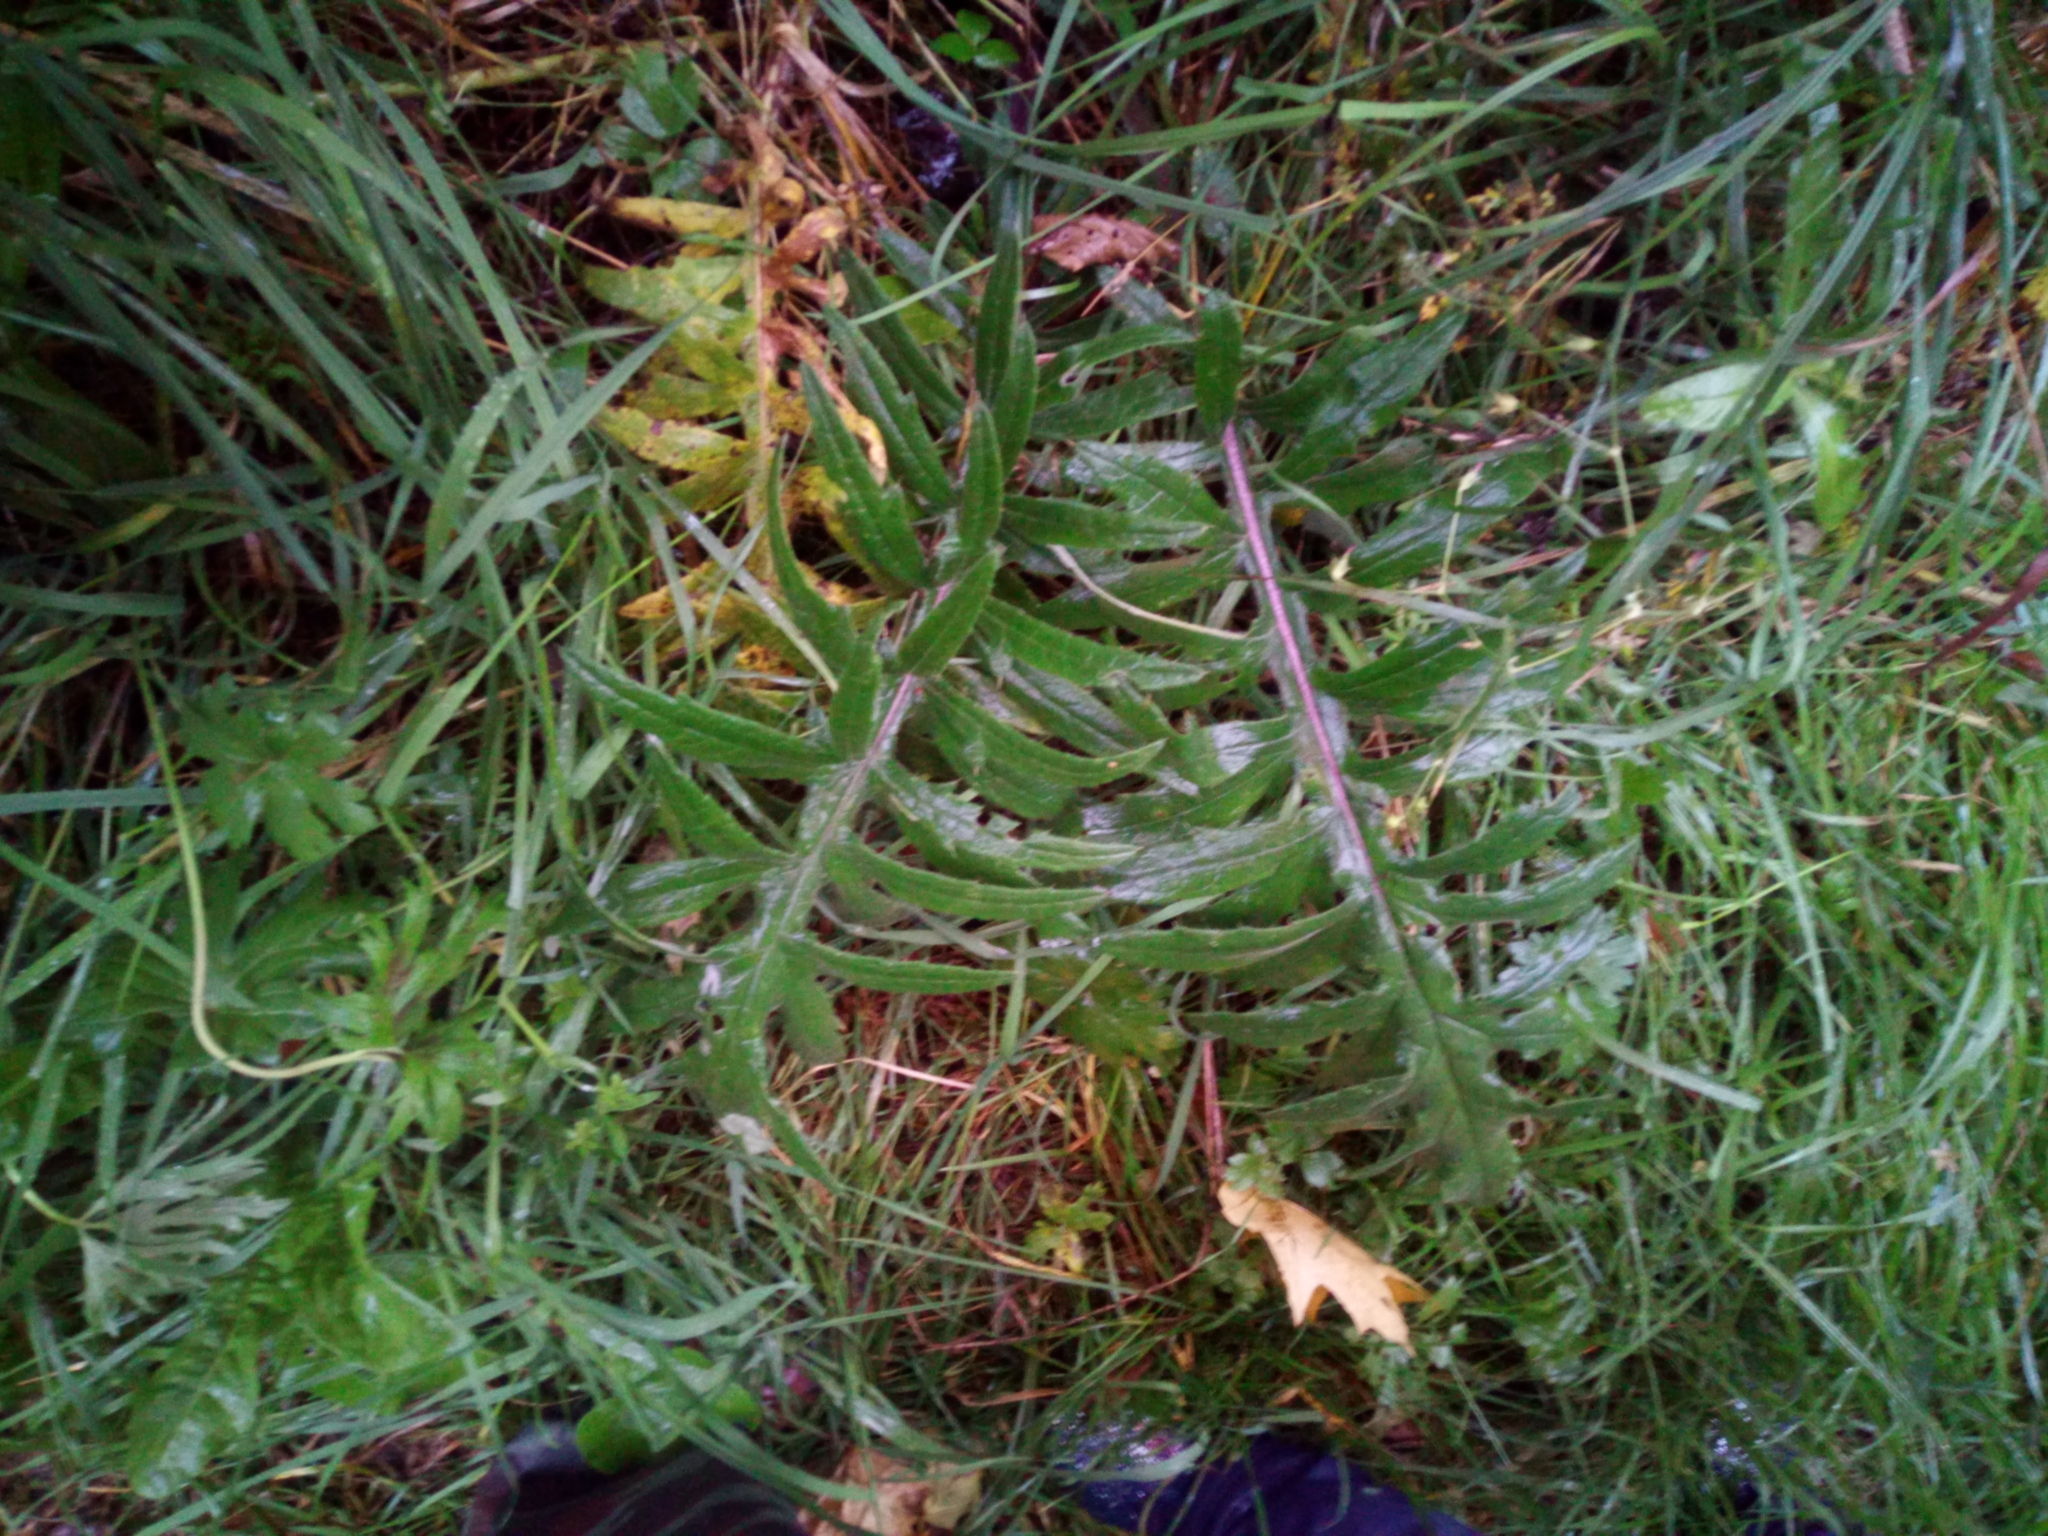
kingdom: Plantae
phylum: Tracheophyta
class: Magnoliopsida
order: Asterales
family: Asteraceae
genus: Lophiolepis
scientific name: Lophiolepis decussata
